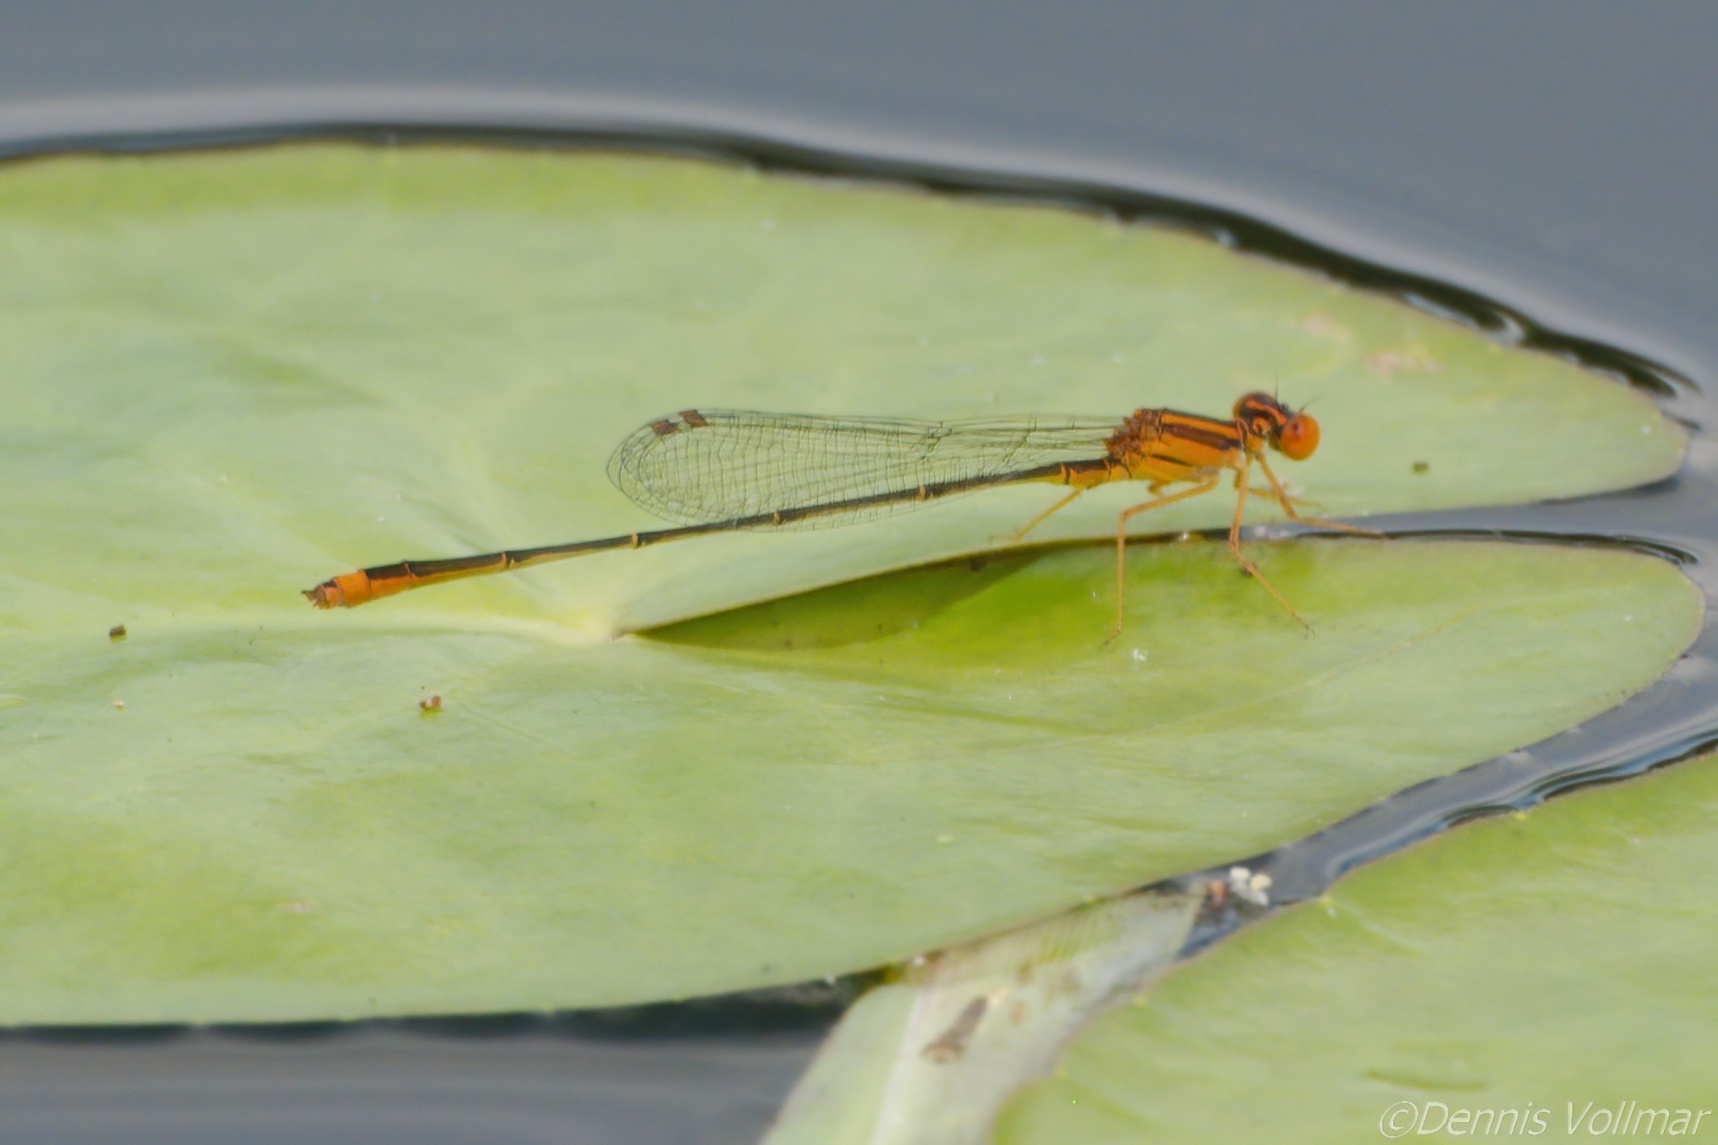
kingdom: Animalia
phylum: Arthropoda
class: Insecta
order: Odonata
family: Coenagrionidae
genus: Enallagma
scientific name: Enallagma pollutum
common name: Florida bluet
